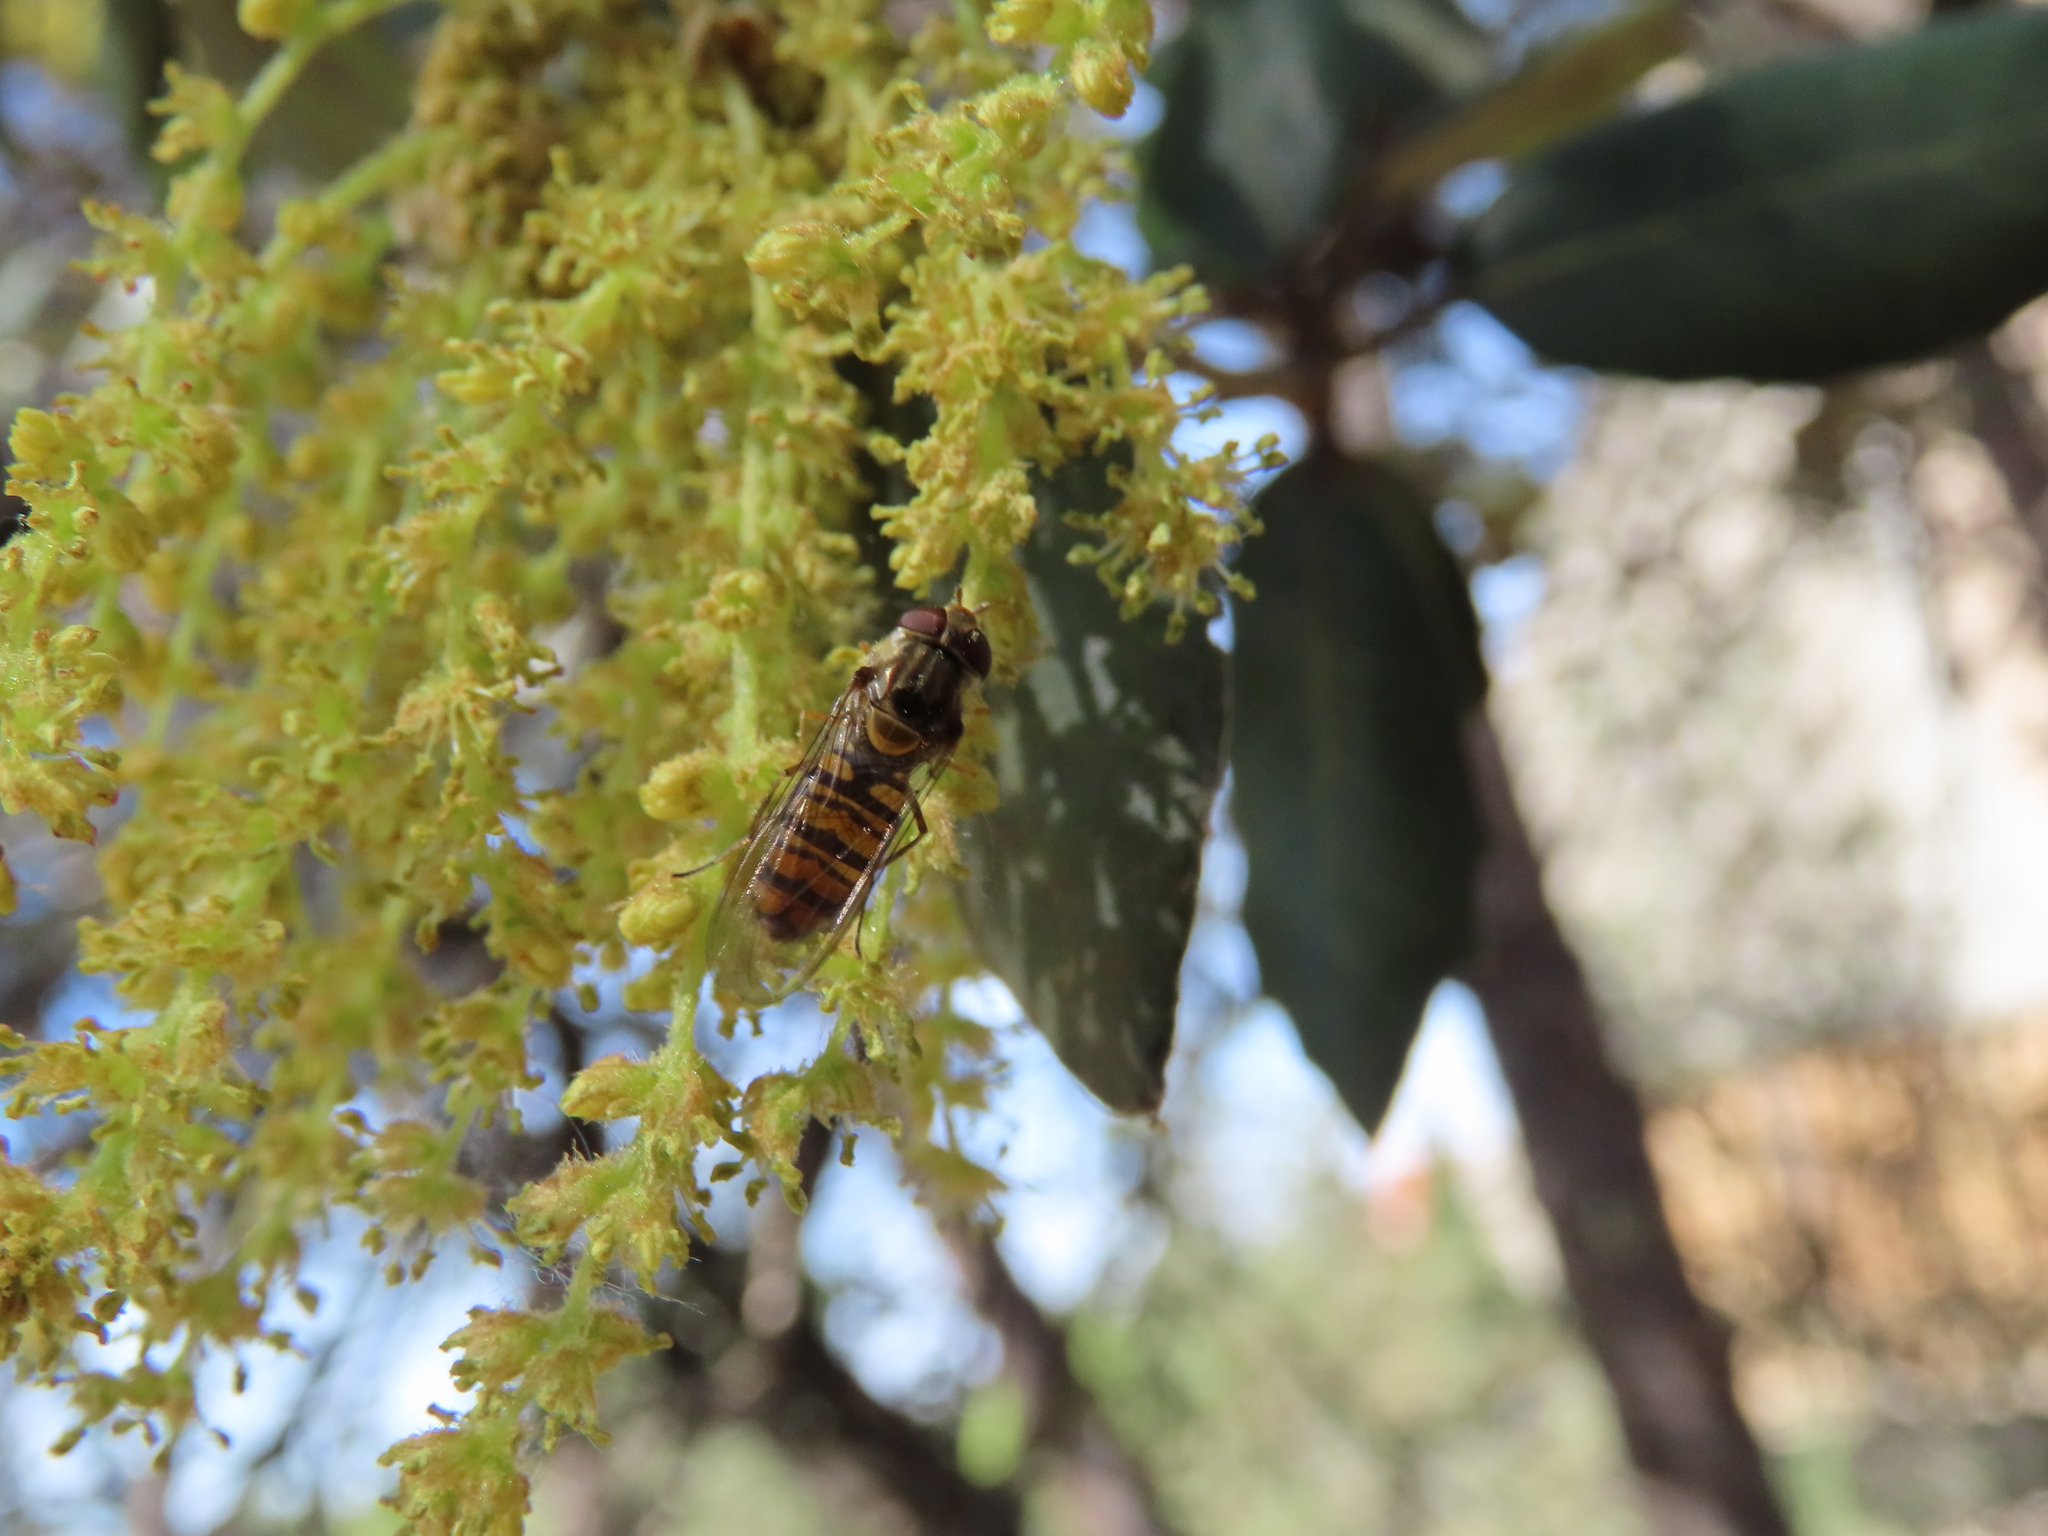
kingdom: Animalia
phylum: Arthropoda
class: Insecta
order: Diptera
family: Syrphidae
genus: Episyrphus
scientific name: Episyrphus balteatus
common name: Marmalade hoverfly
